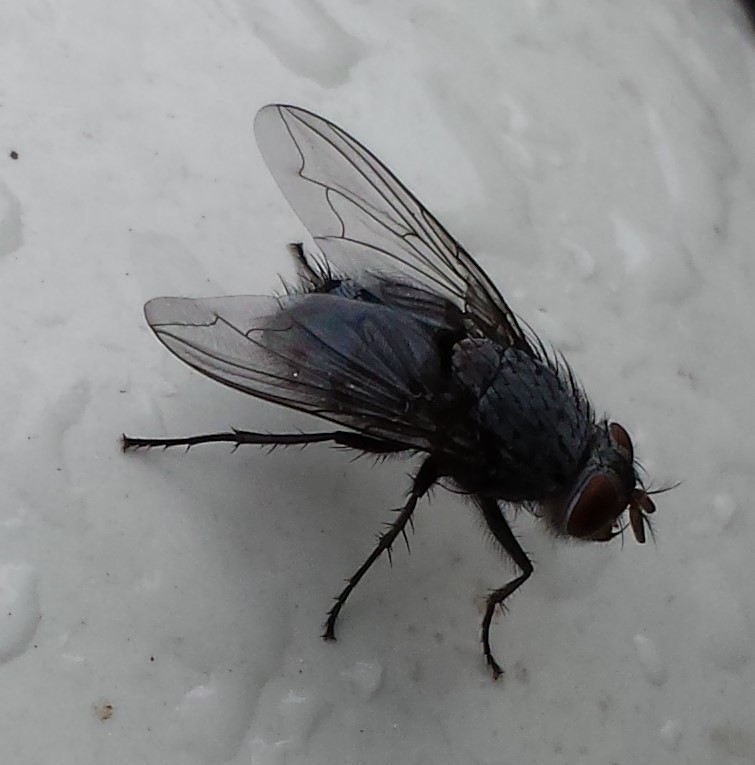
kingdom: Animalia
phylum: Arthropoda
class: Insecta
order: Diptera
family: Calliphoridae
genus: Calliphora
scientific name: Calliphora vicina
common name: Common blow flie
